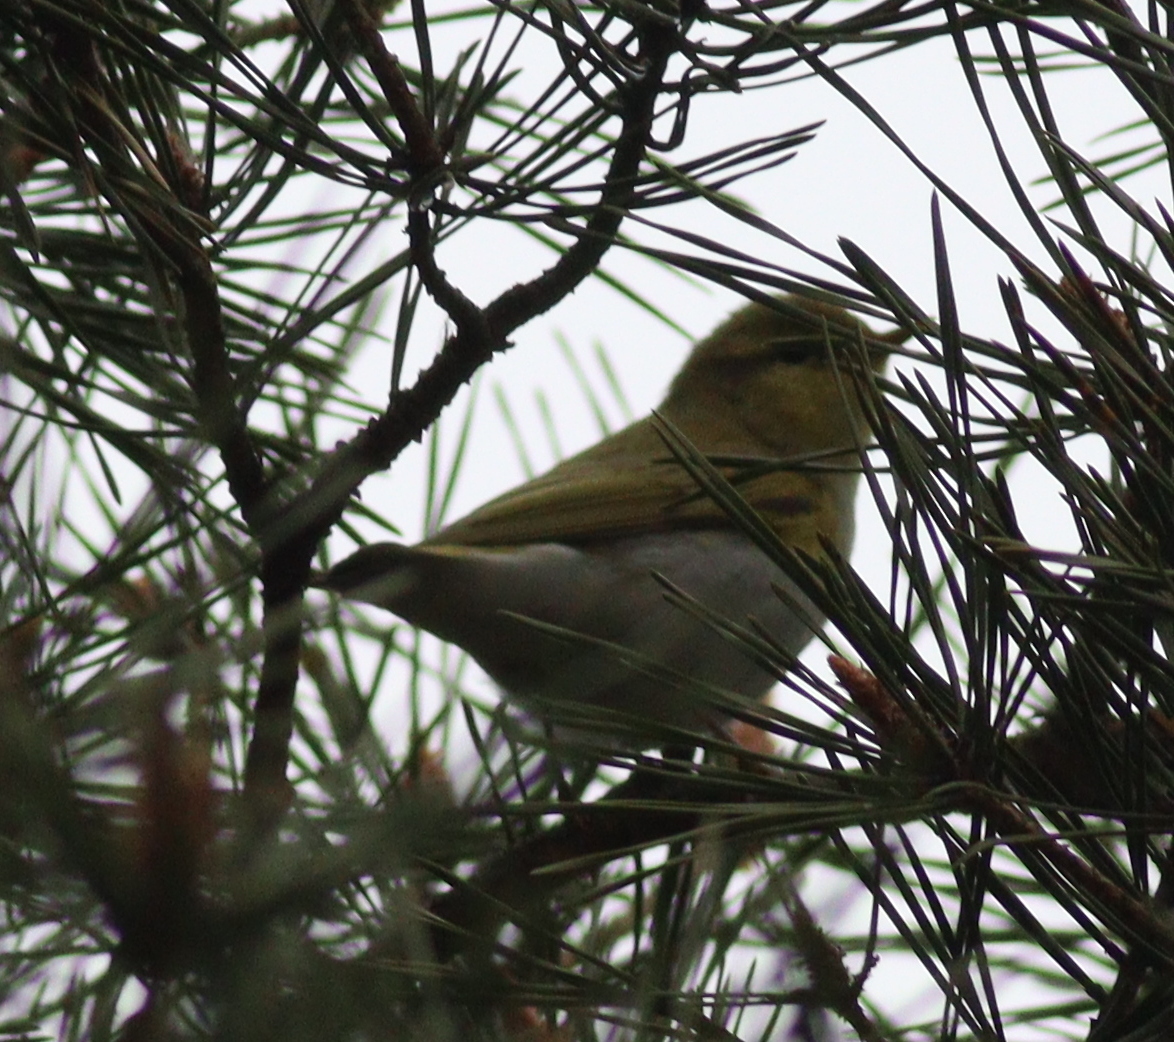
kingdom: Animalia
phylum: Chordata
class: Aves
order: Passeriformes
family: Phylloscopidae
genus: Phylloscopus
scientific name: Phylloscopus sibillatrix
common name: Wood warbler
